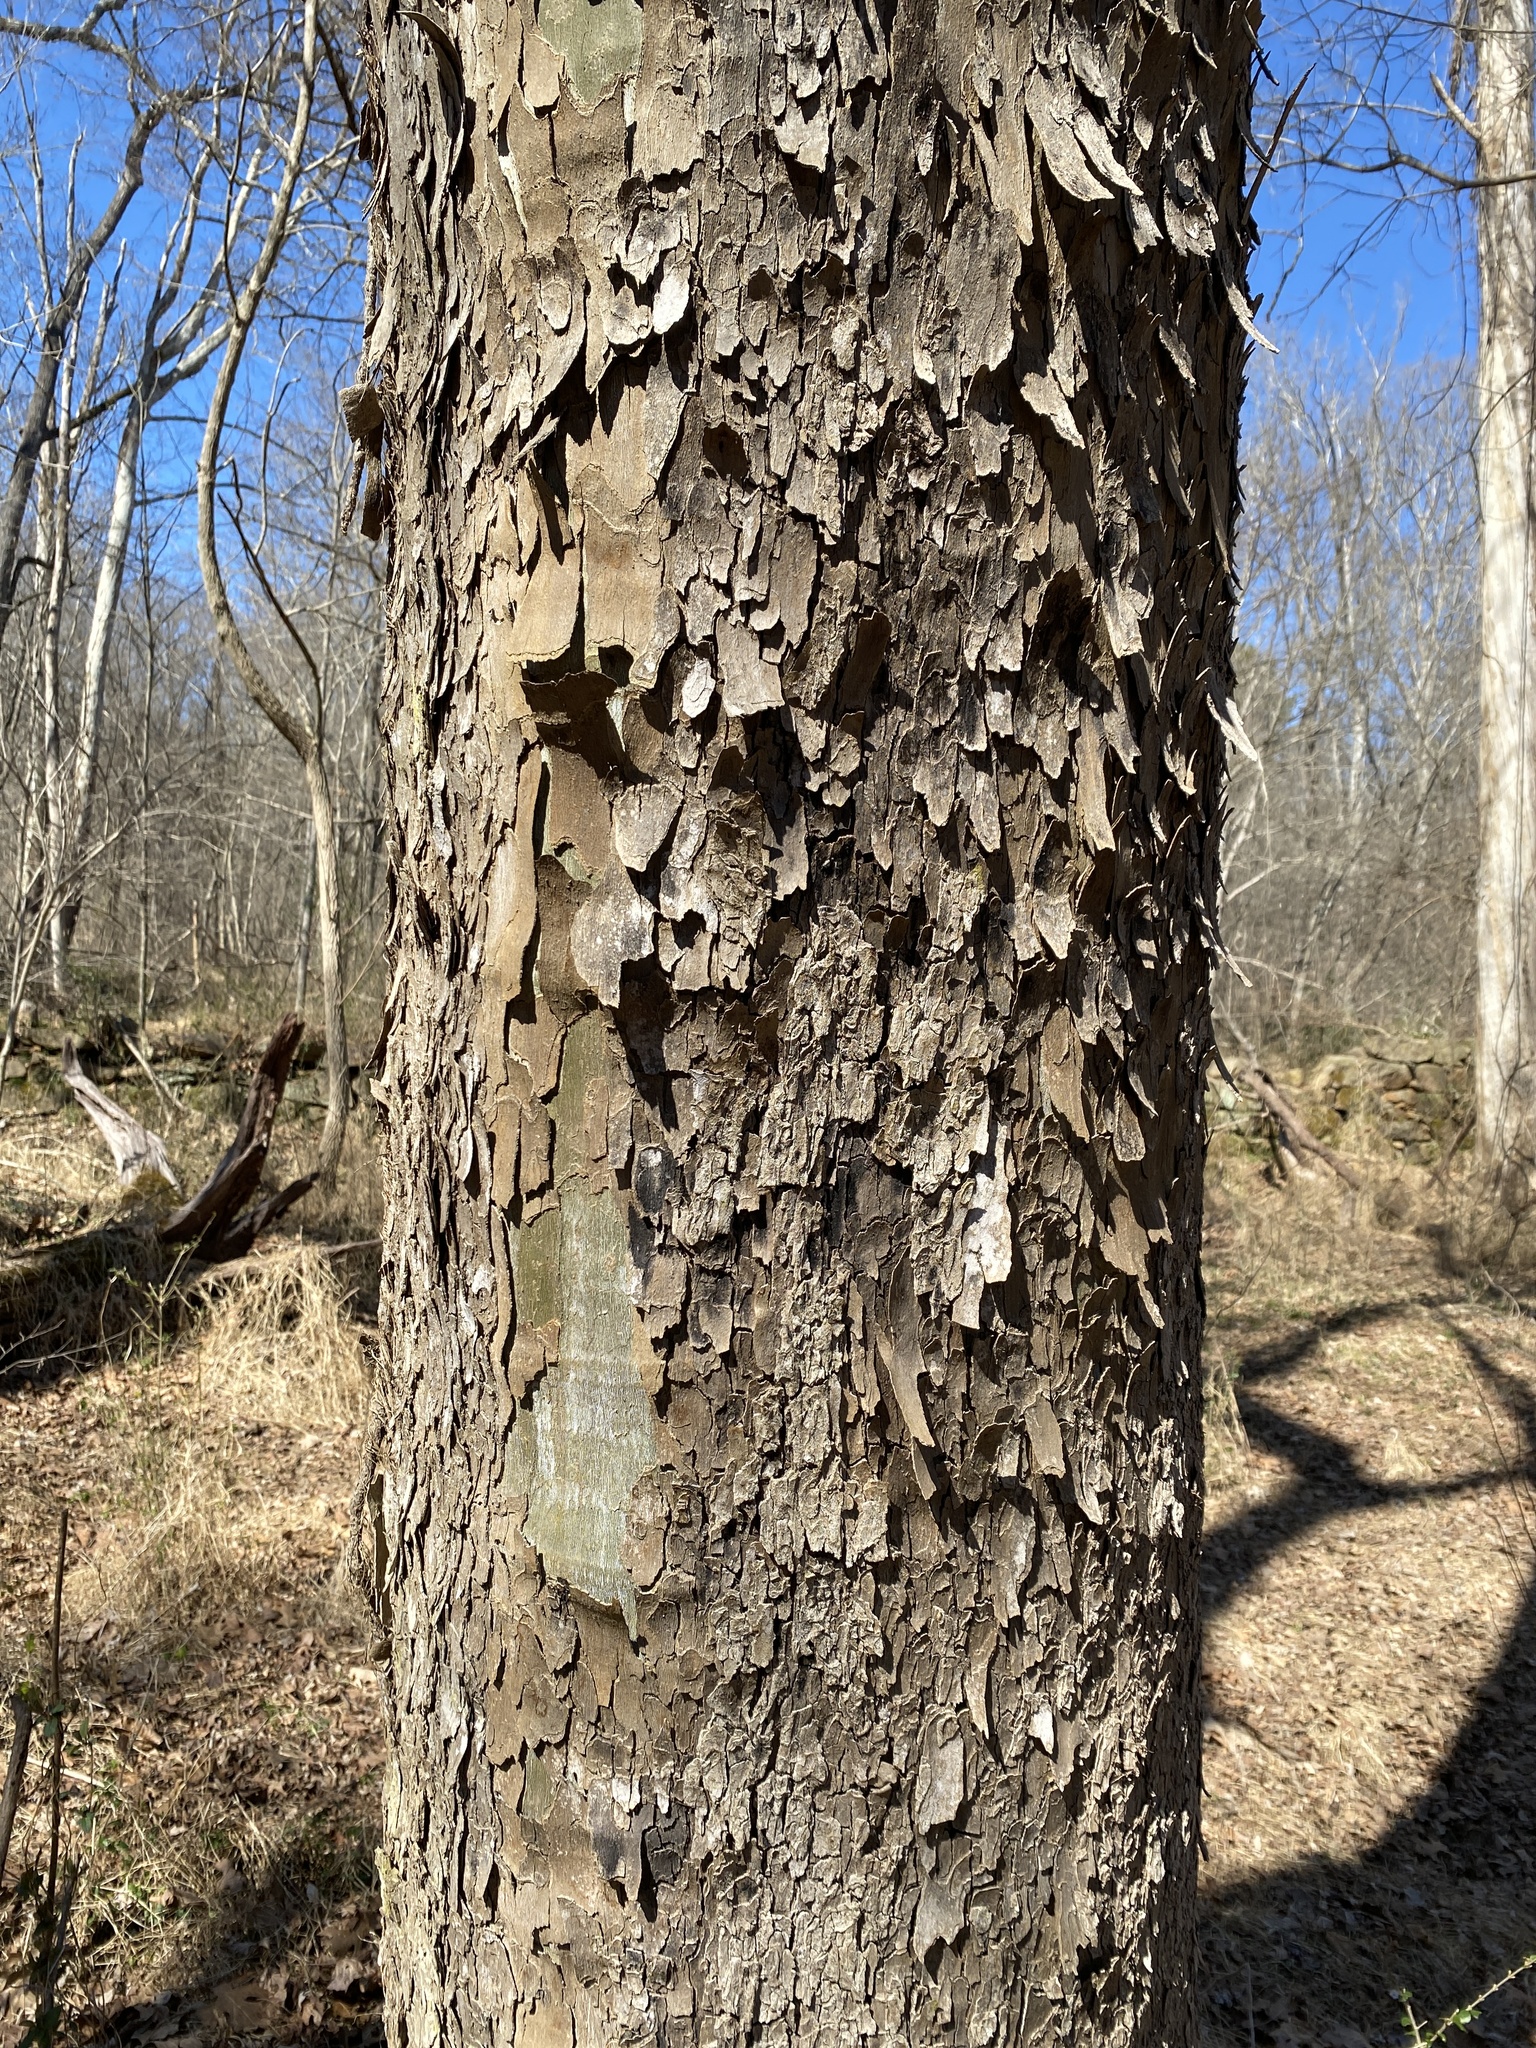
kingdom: Plantae
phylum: Tracheophyta
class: Magnoliopsida
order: Proteales
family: Platanaceae
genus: Platanus
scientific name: Platanus occidentalis
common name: American sycamore
